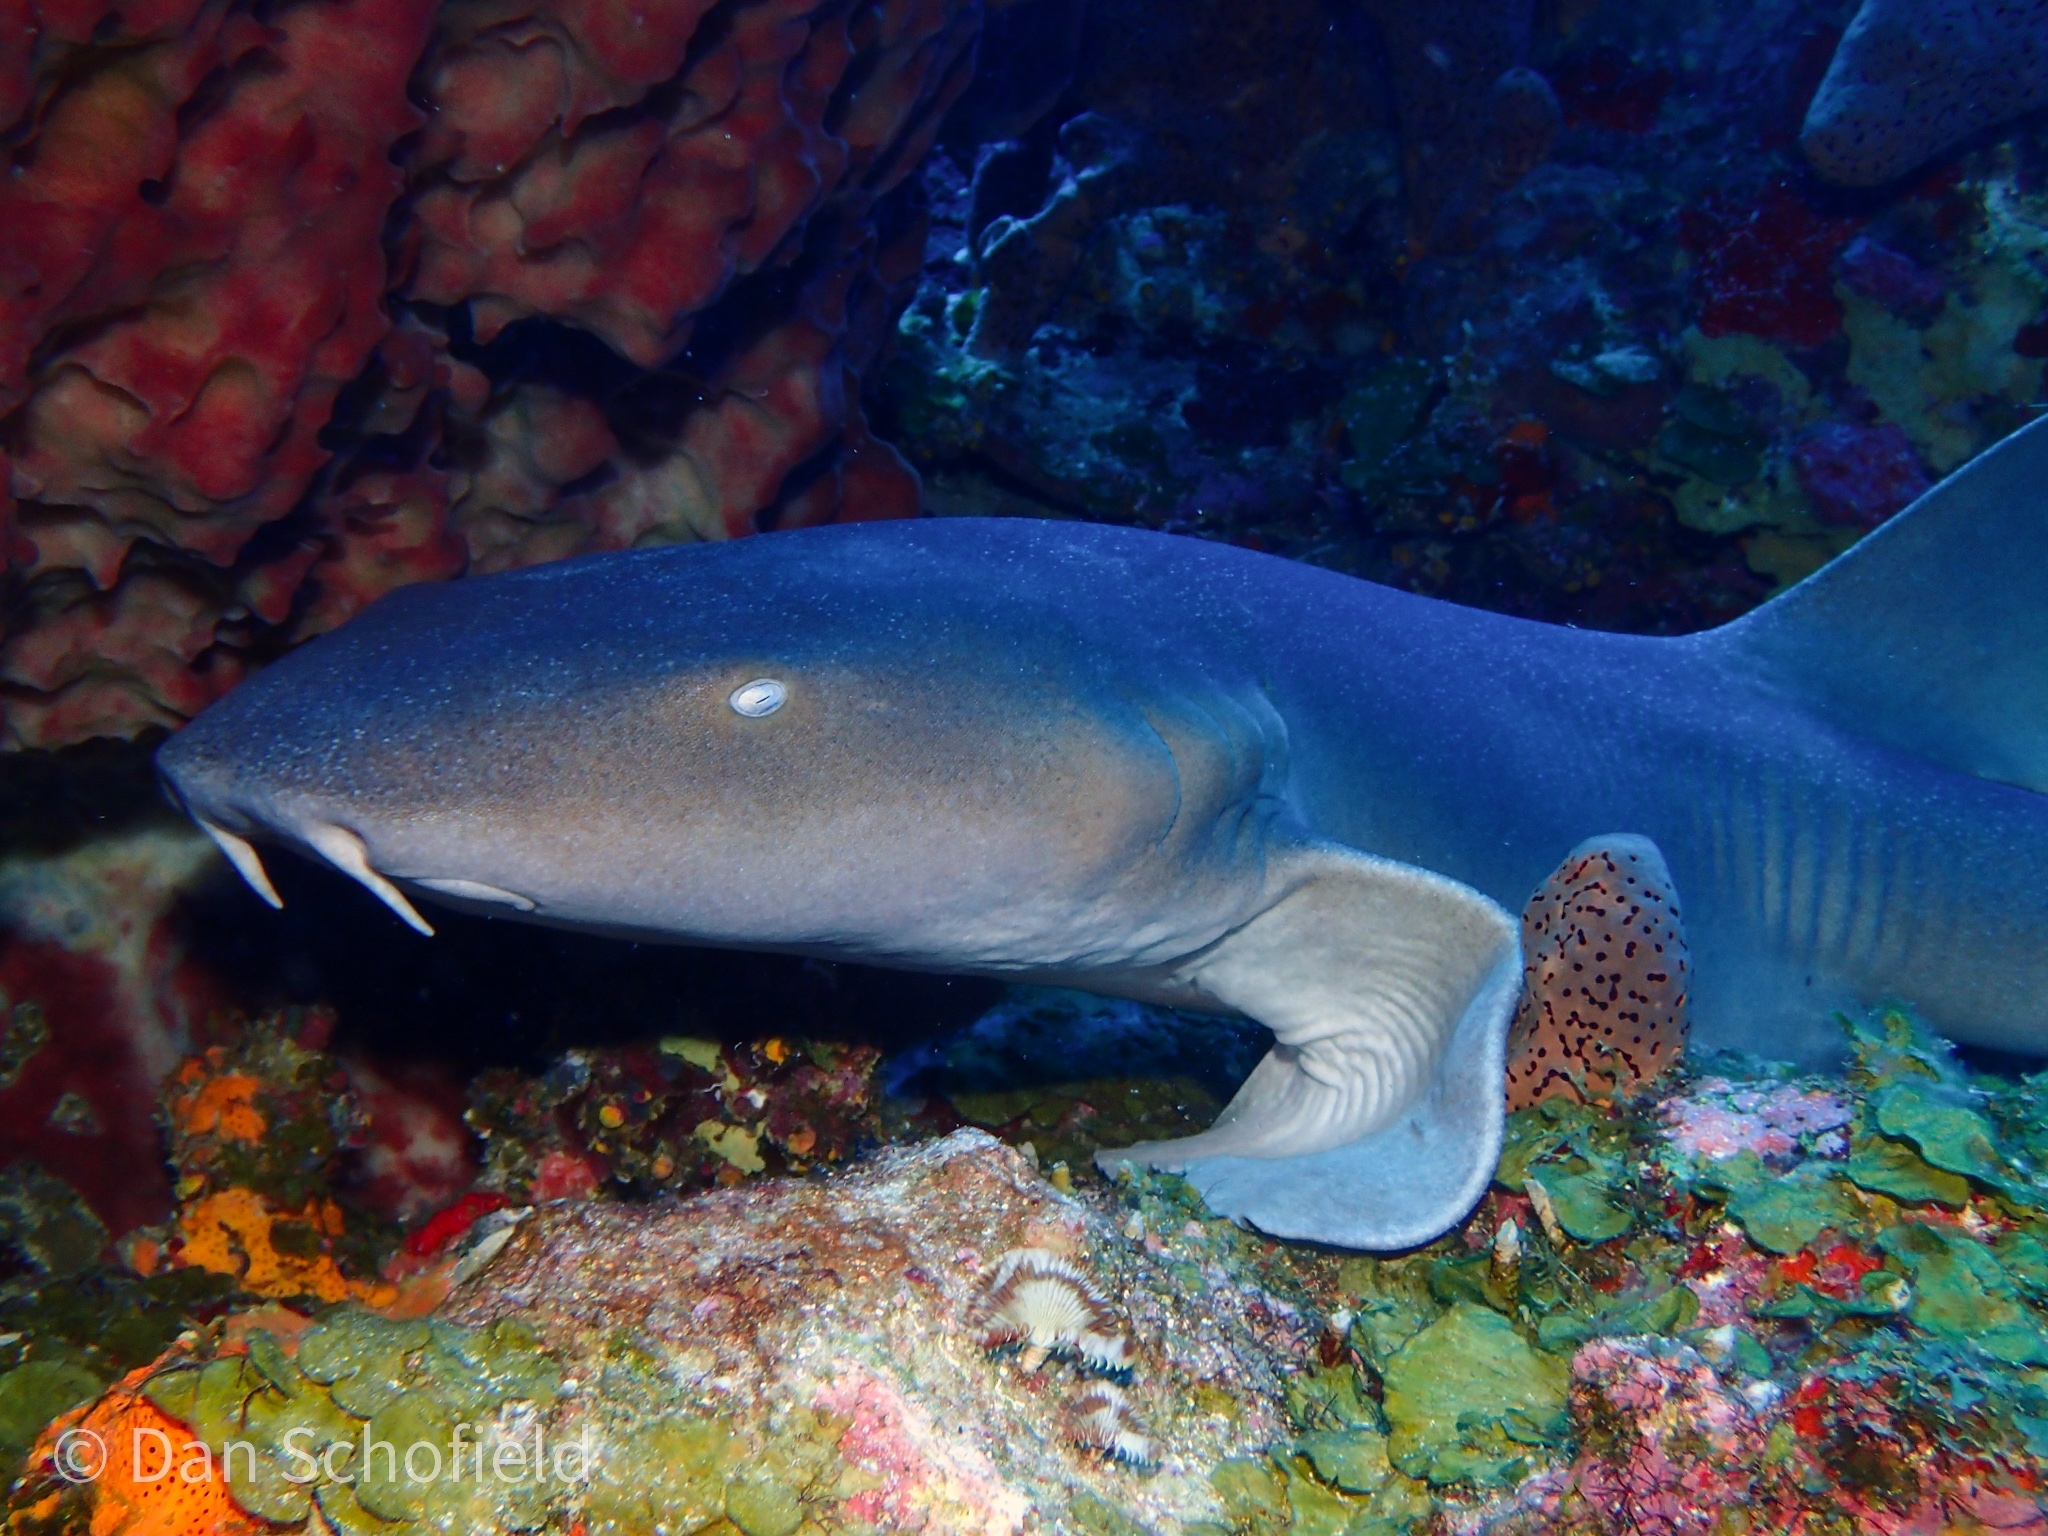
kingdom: Animalia
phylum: Chordata
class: Elasmobranchii
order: Orectolobiformes
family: Ginglymostomatidae
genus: Ginglymostoma
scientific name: Ginglymostoma cirratum
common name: Nurse shark
